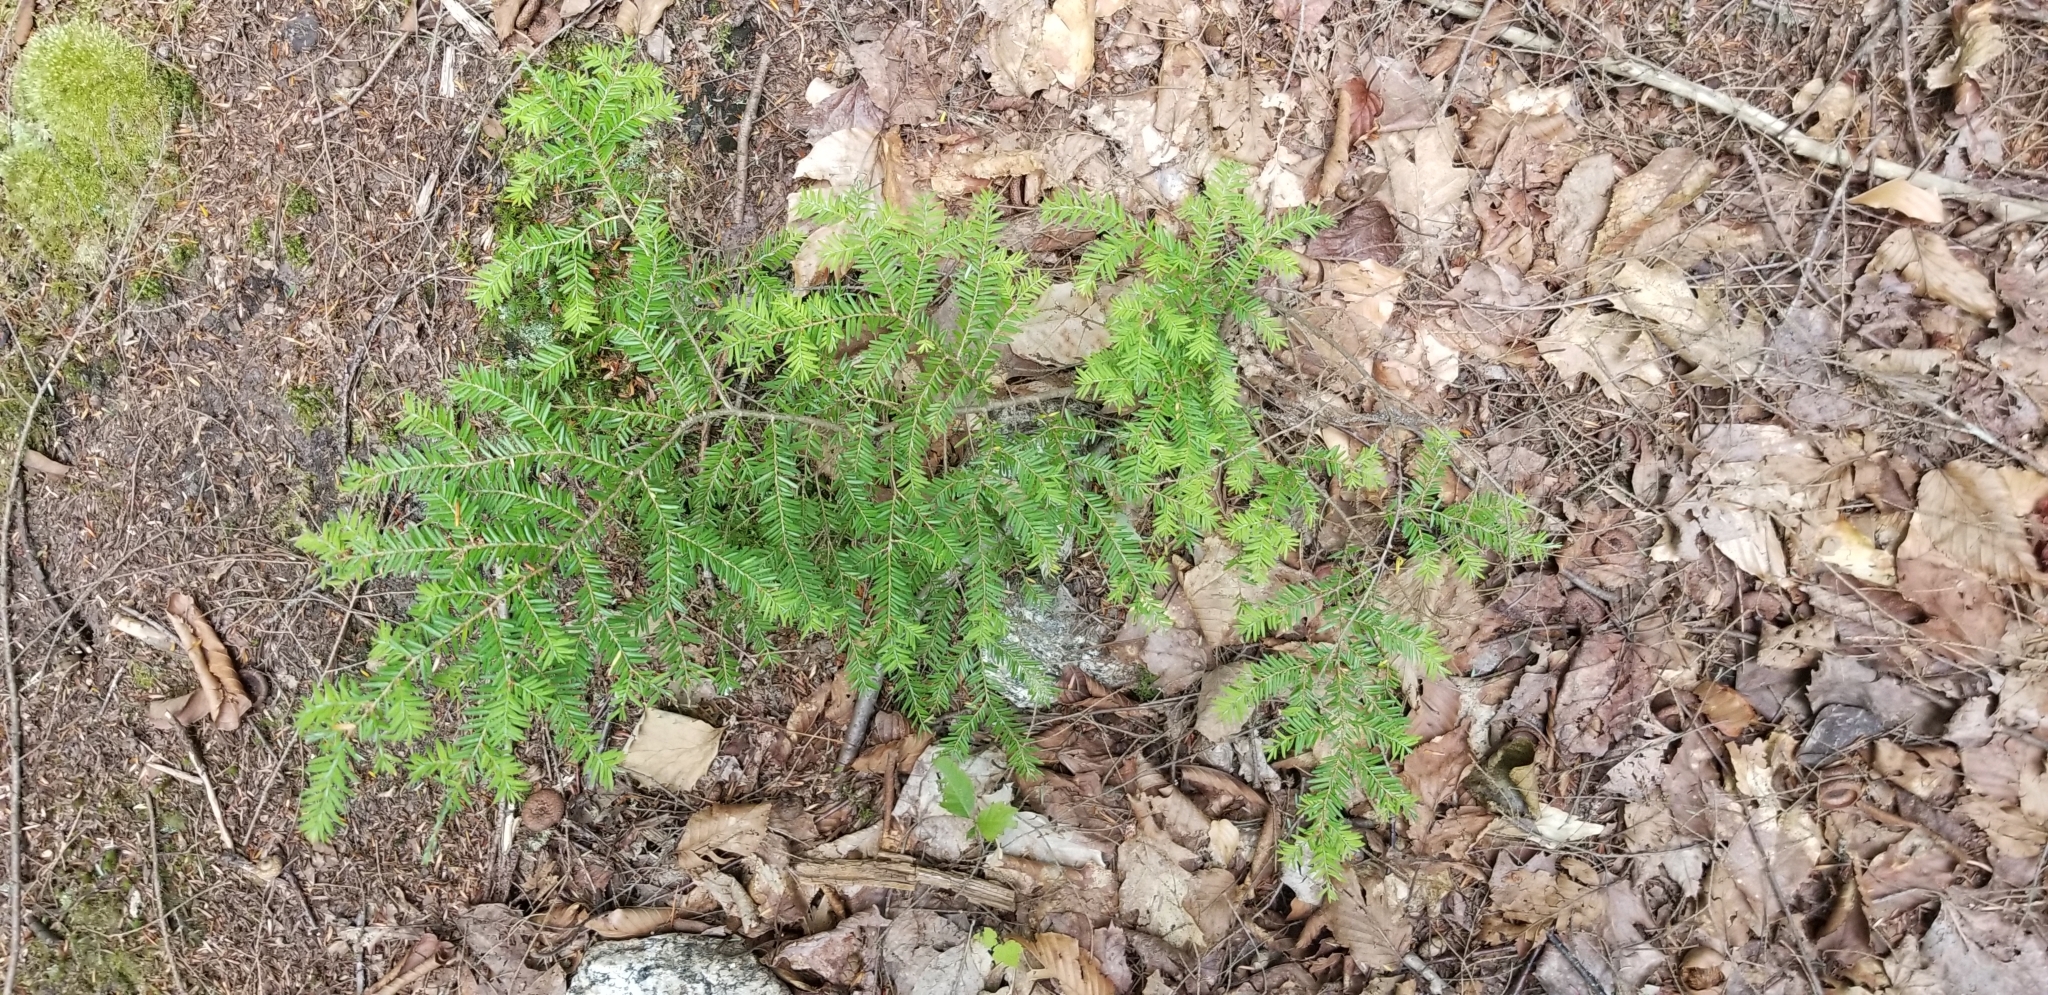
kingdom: Plantae
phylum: Tracheophyta
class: Pinopsida
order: Pinales
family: Pinaceae
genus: Tsuga
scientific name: Tsuga canadensis
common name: Eastern hemlock
